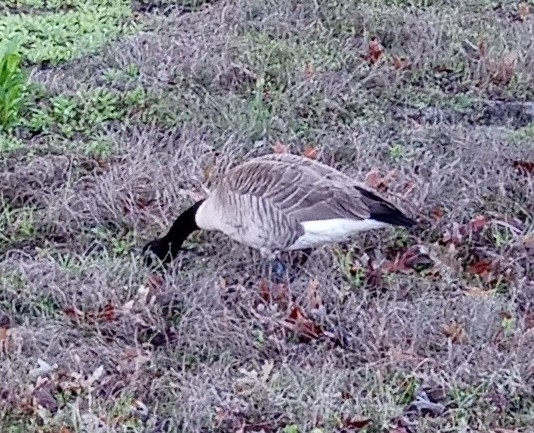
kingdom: Animalia
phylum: Chordata
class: Aves
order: Anseriformes
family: Anatidae
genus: Branta
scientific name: Branta canadensis
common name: Canada goose
